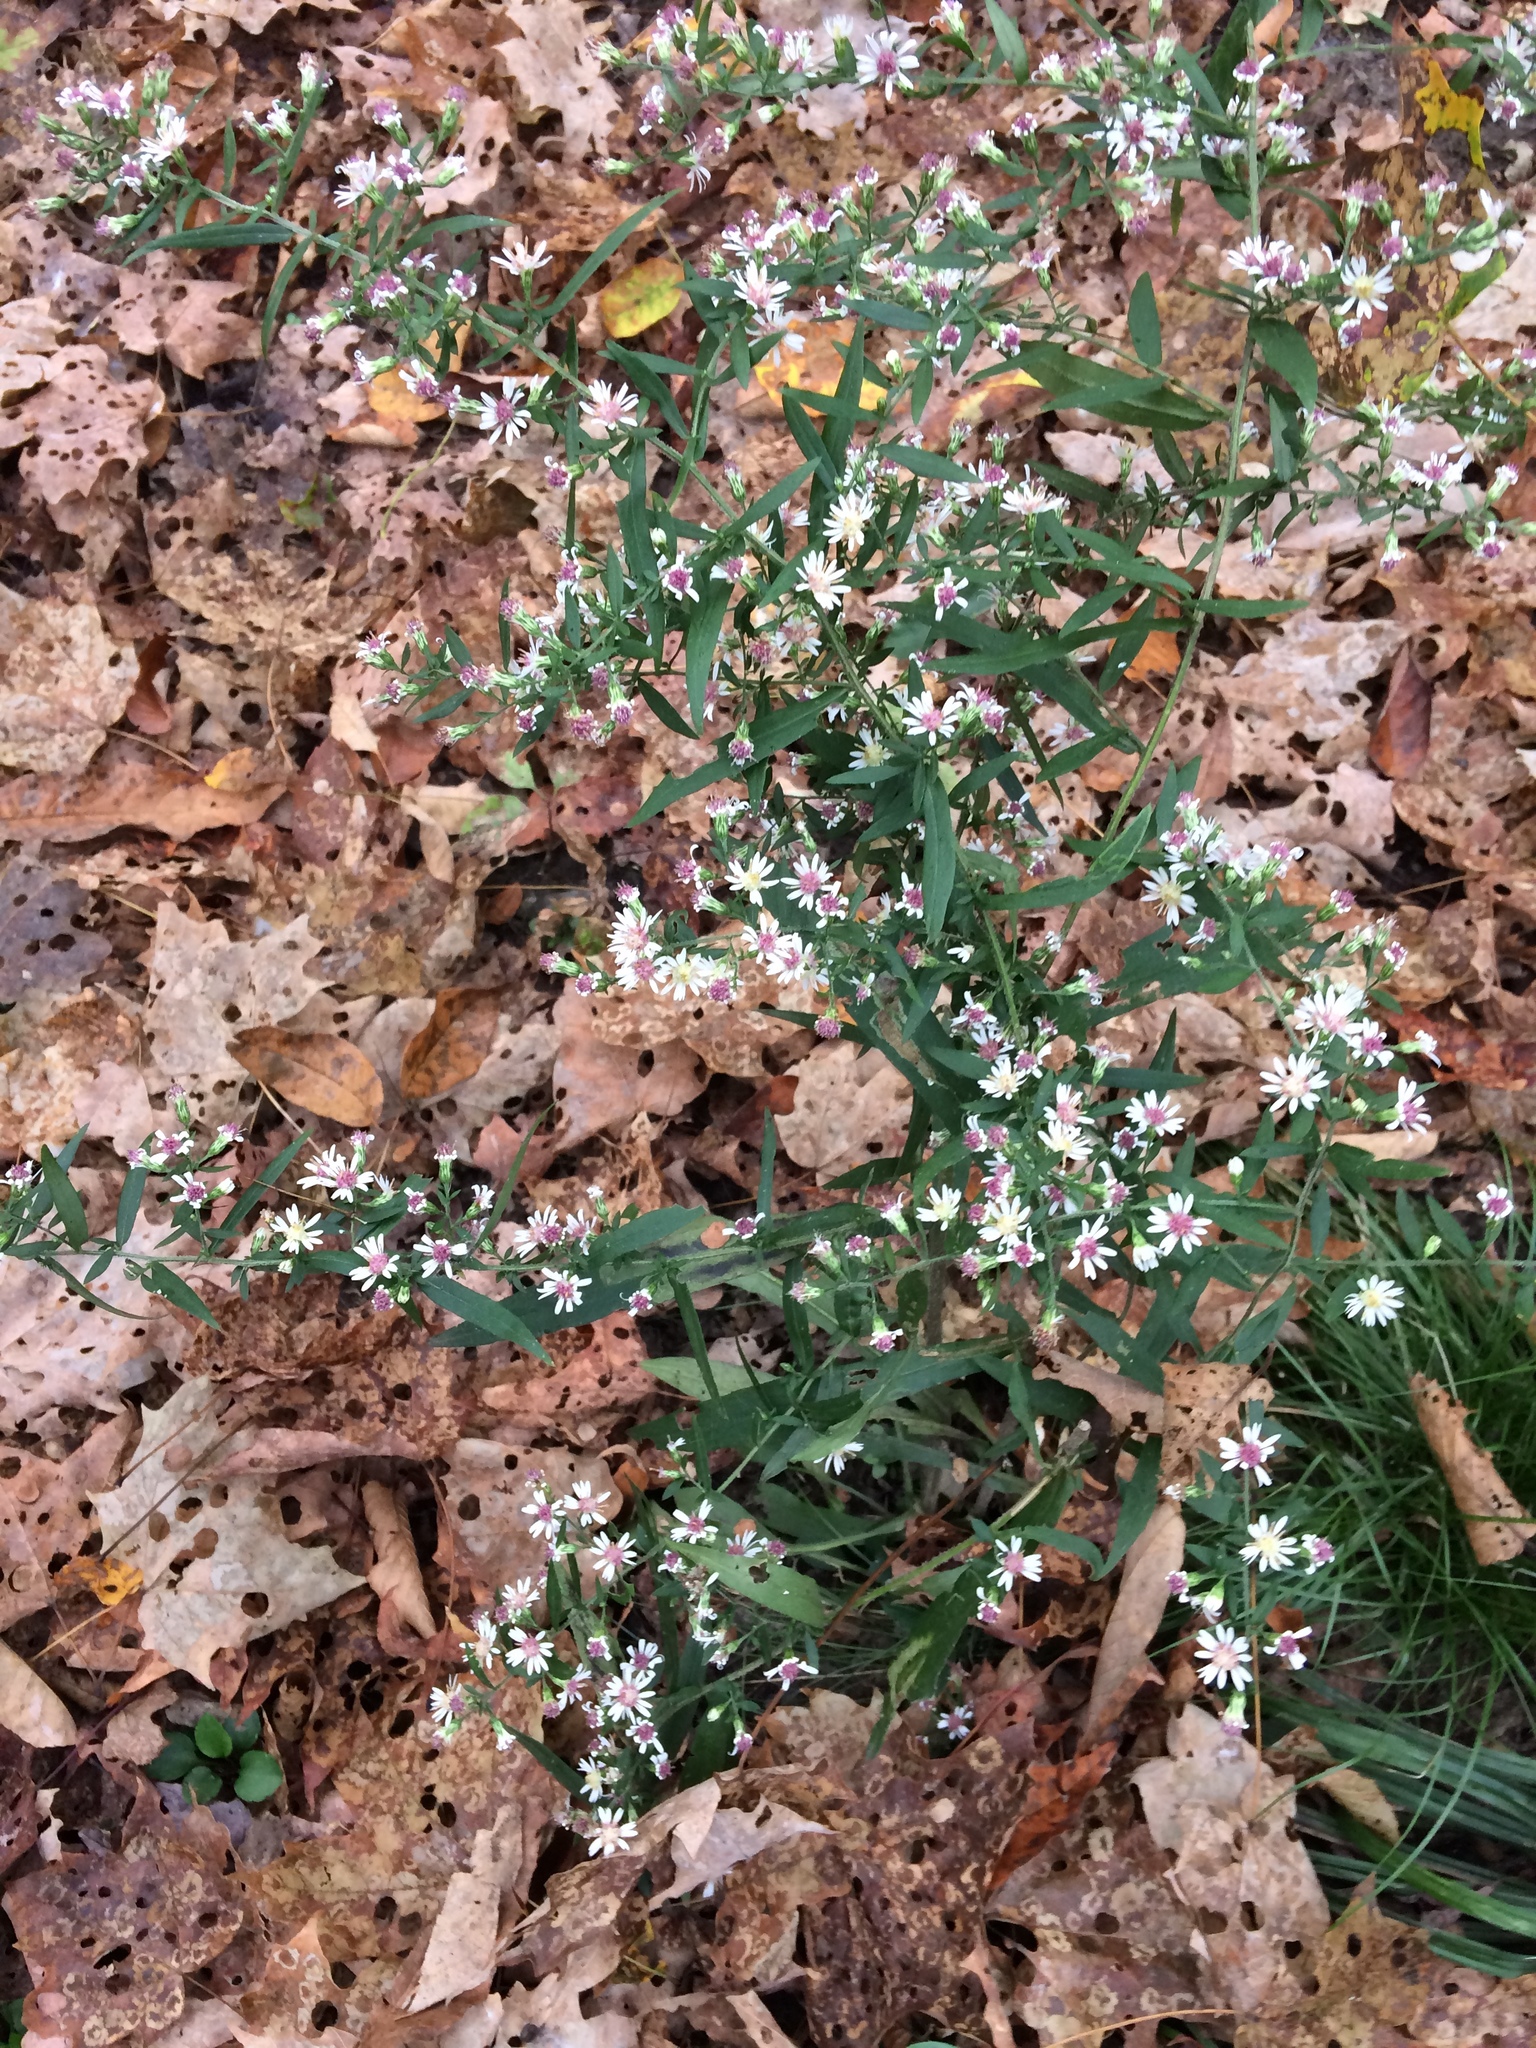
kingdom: Plantae
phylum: Tracheophyta
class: Magnoliopsida
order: Asterales
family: Asteraceae
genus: Symphyotrichum
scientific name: Symphyotrichum lateriflorum
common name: Calico aster
